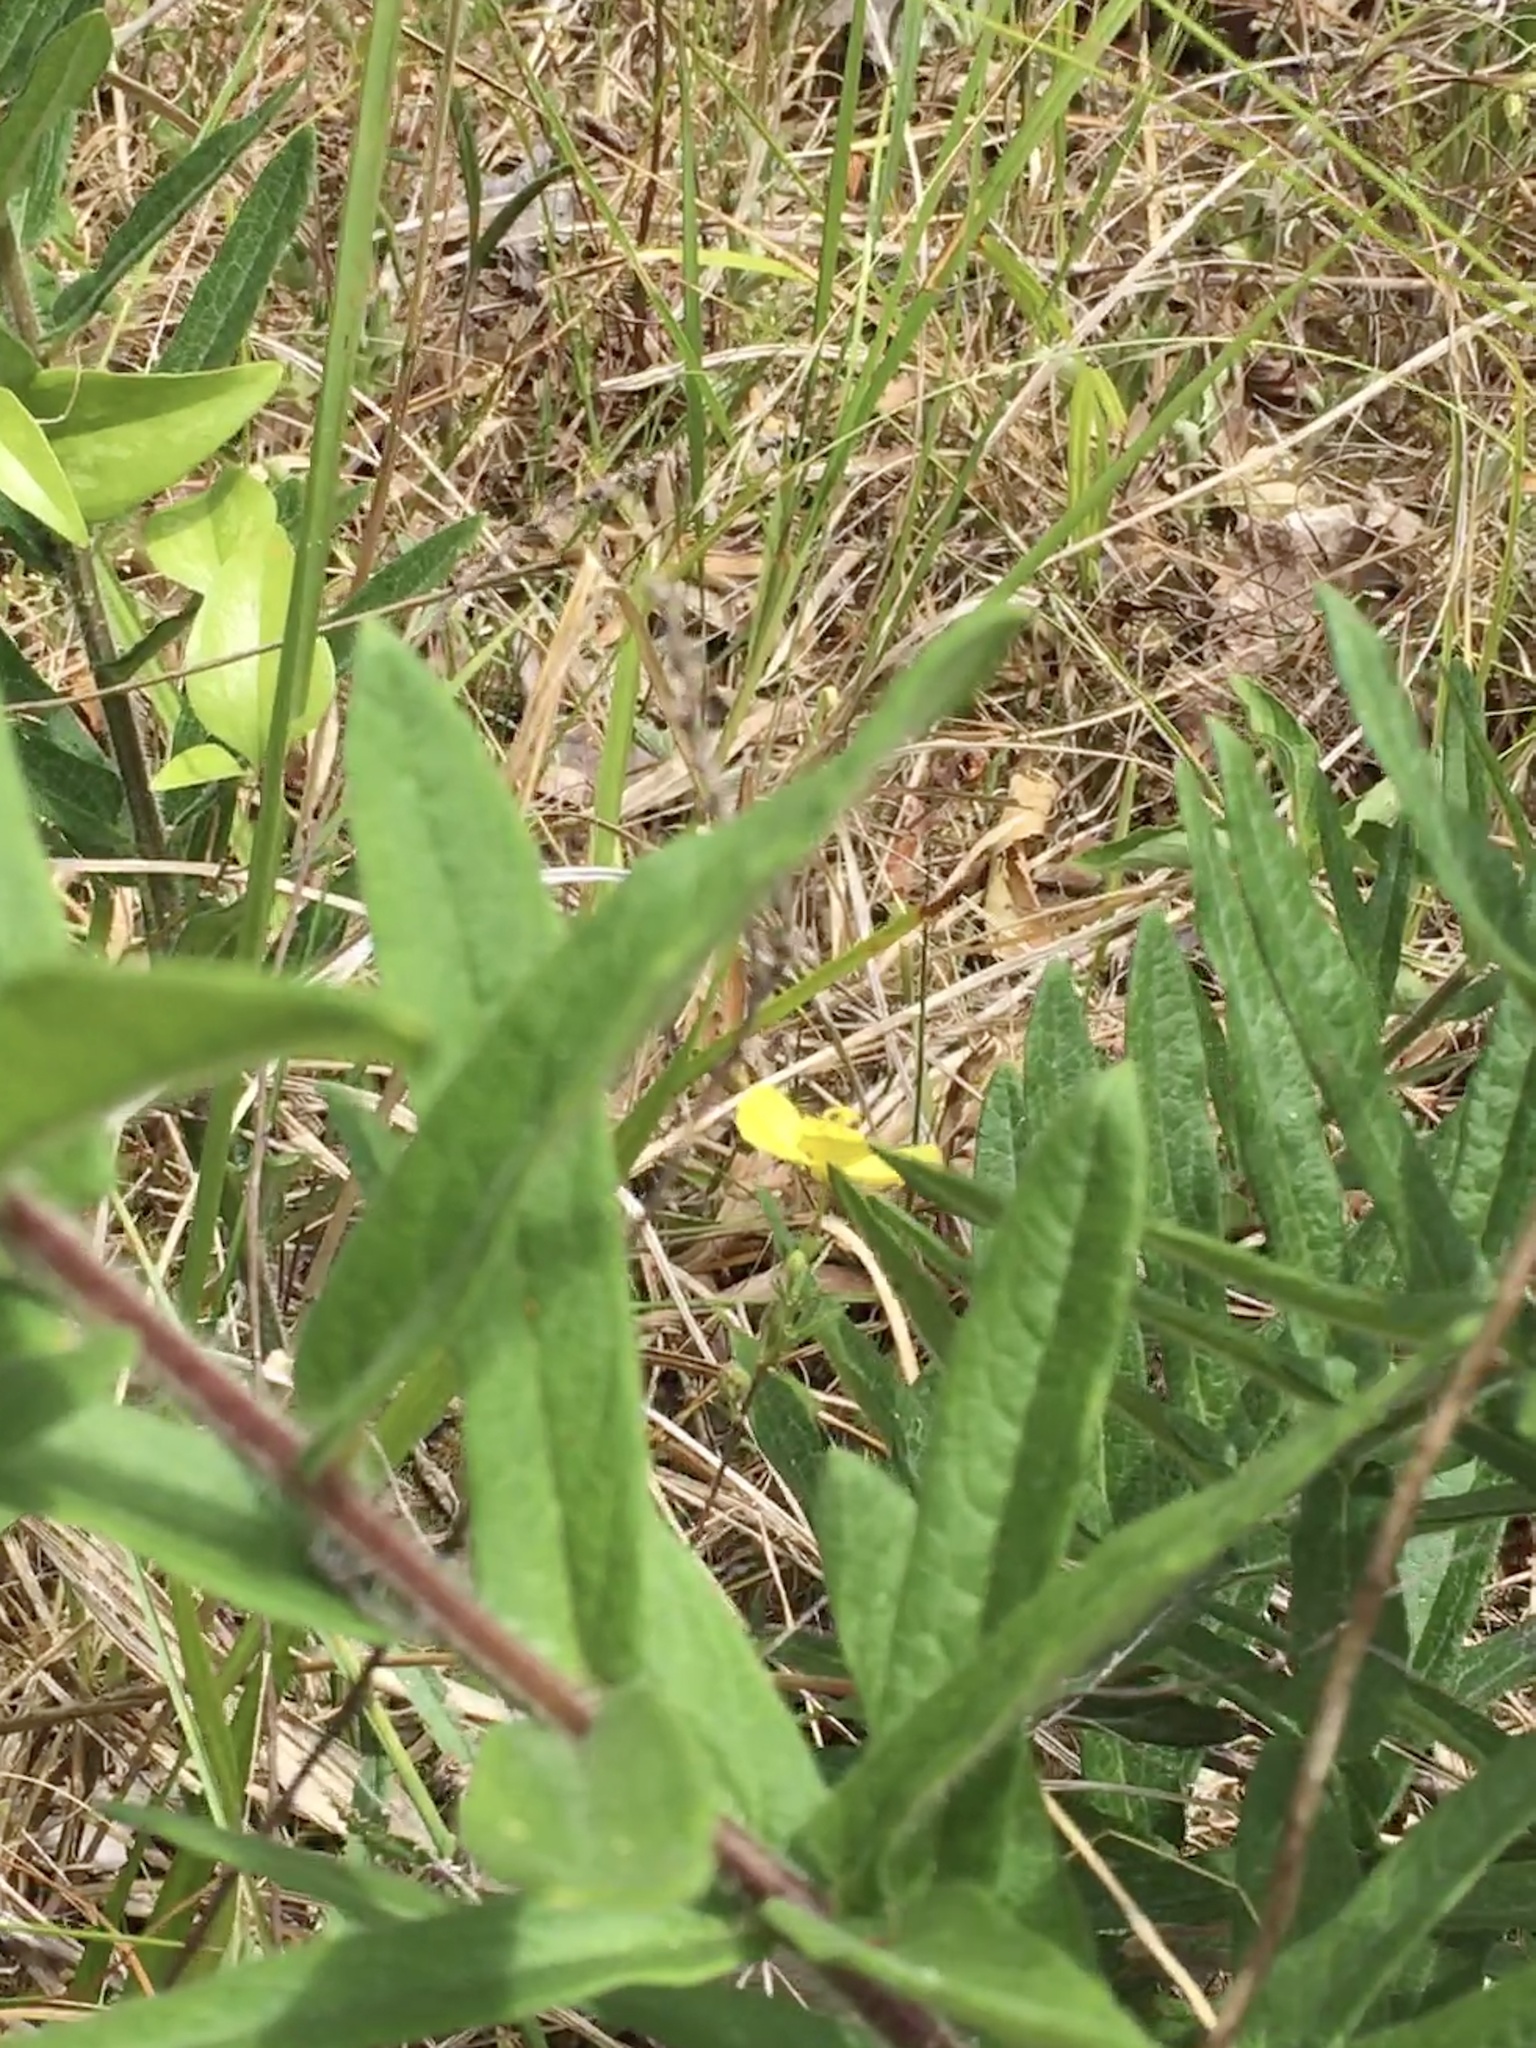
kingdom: Plantae
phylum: Tracheophyta
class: Magnoliopsida
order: Gentianales
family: Apocynaceae
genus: Asclepias
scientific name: Asclepias tuberosa
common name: Butterfly milkweed
